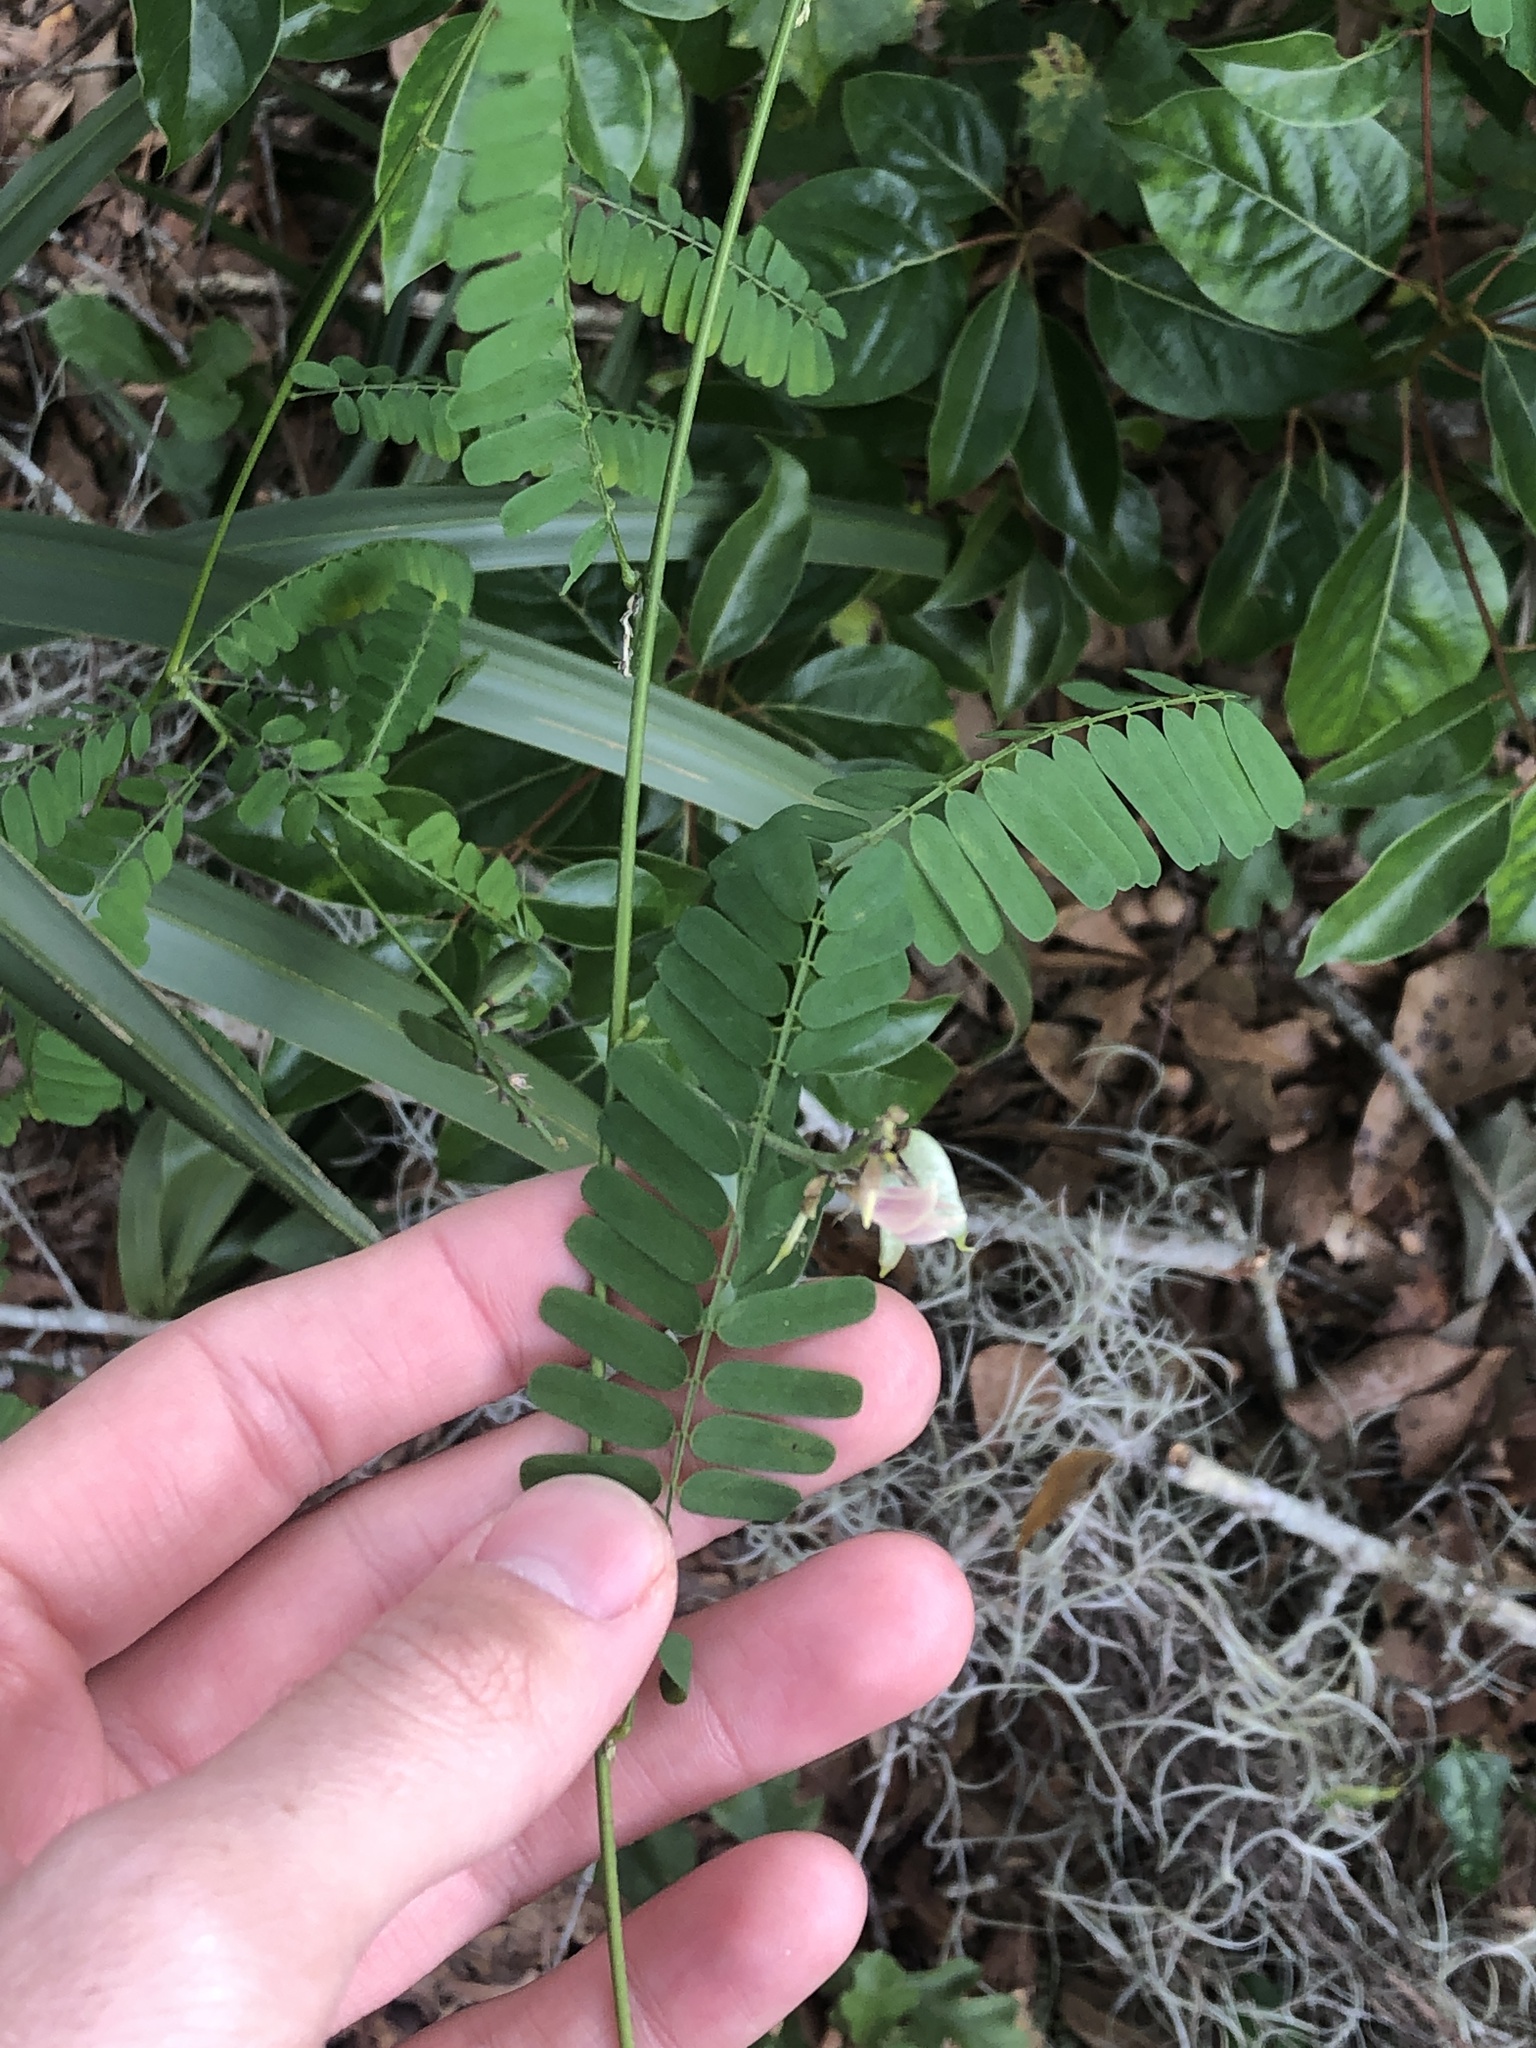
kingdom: Plantae
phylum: Tracheophyta
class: Magnoliopsida
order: Fabales
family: Fabaceae
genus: Abrus
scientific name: Abrus precatorius
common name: Rosarypea
